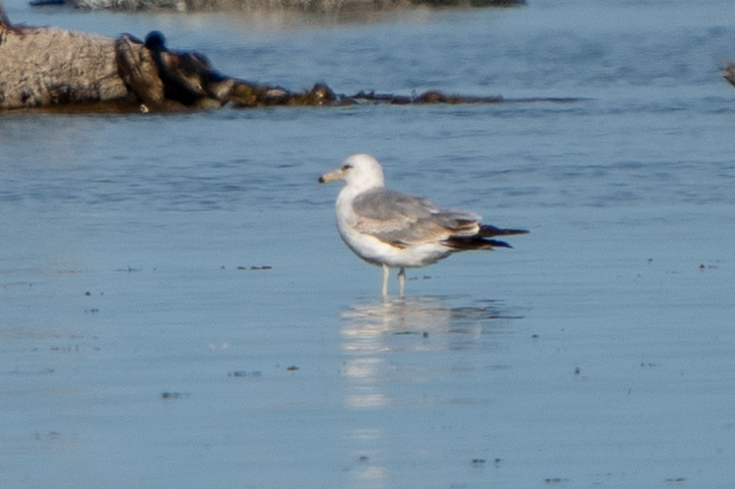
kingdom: Animalia
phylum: Chordata
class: Aves
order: Charadriiformes
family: Laridae
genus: Larus
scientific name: Larus californicus
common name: California gull
